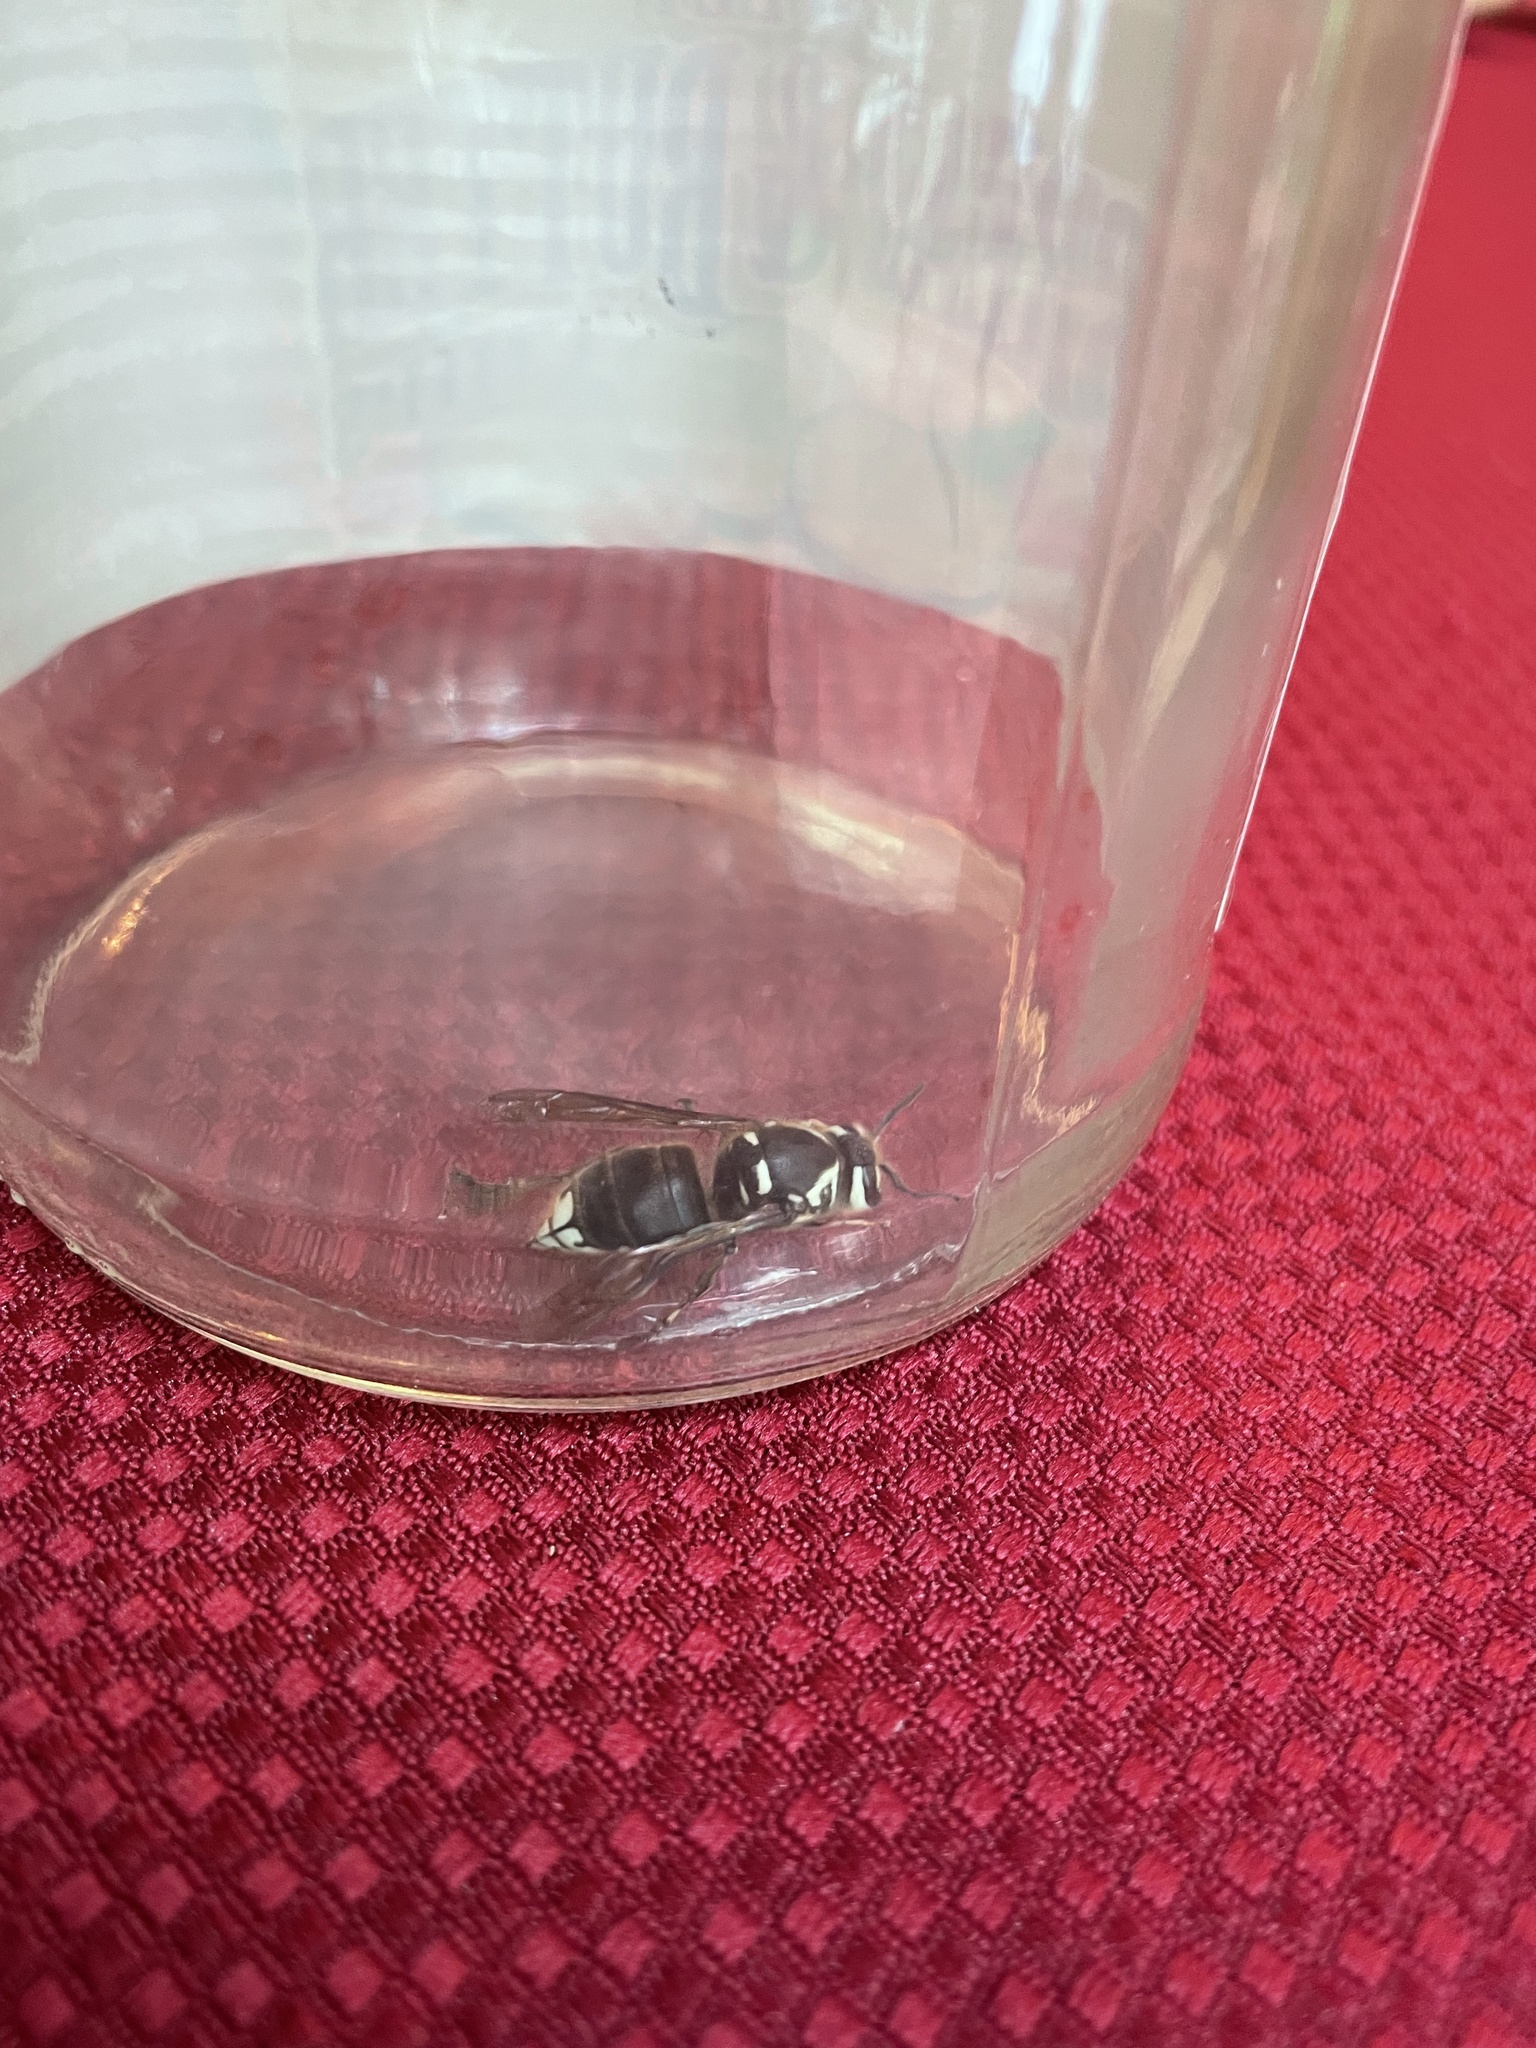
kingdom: Animalia
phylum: Arthropoda
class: Insecta
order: Hymenoptera
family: Vespidae
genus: Dolichovespula
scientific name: Dolichovespula maculata
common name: Bald-faced hornet
